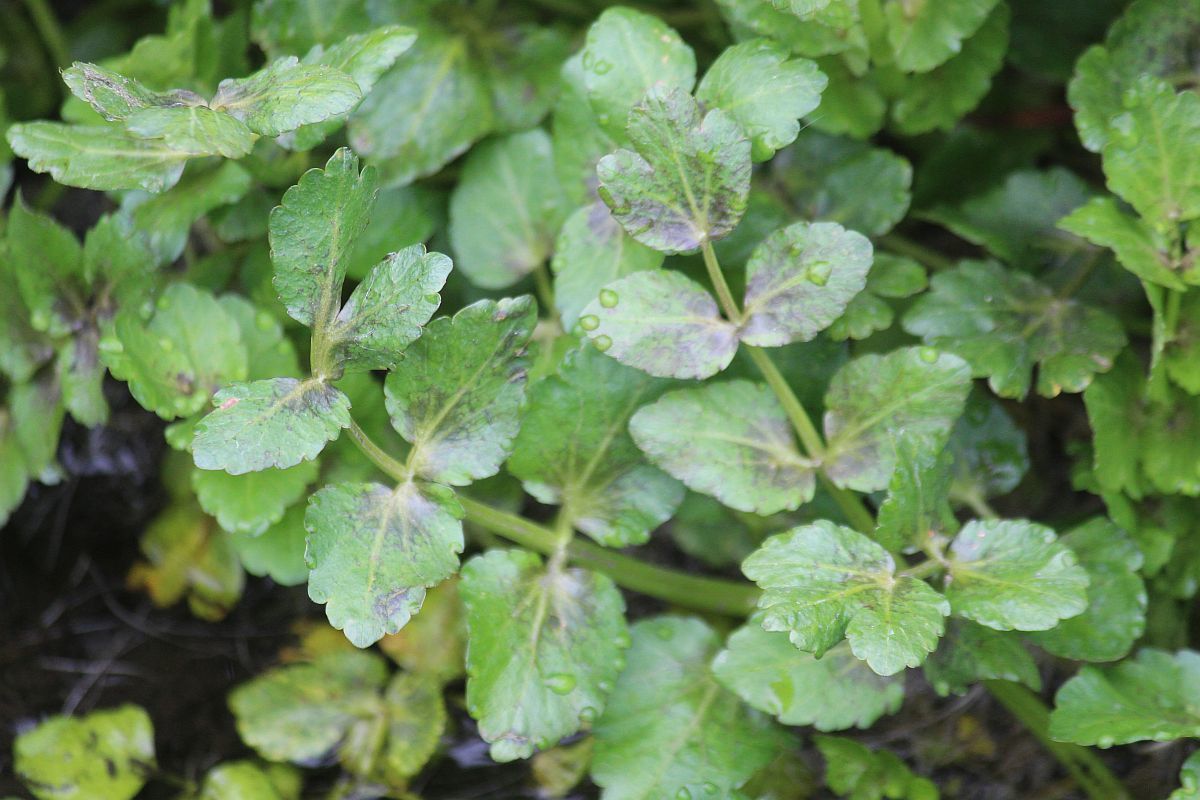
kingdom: Plantae
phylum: Tracheophyta
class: Magnoliopsida
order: Apiales
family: Apiaceae
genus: Helosciadium
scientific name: Helosciadium nodiflorum
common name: Fool's-watercress
